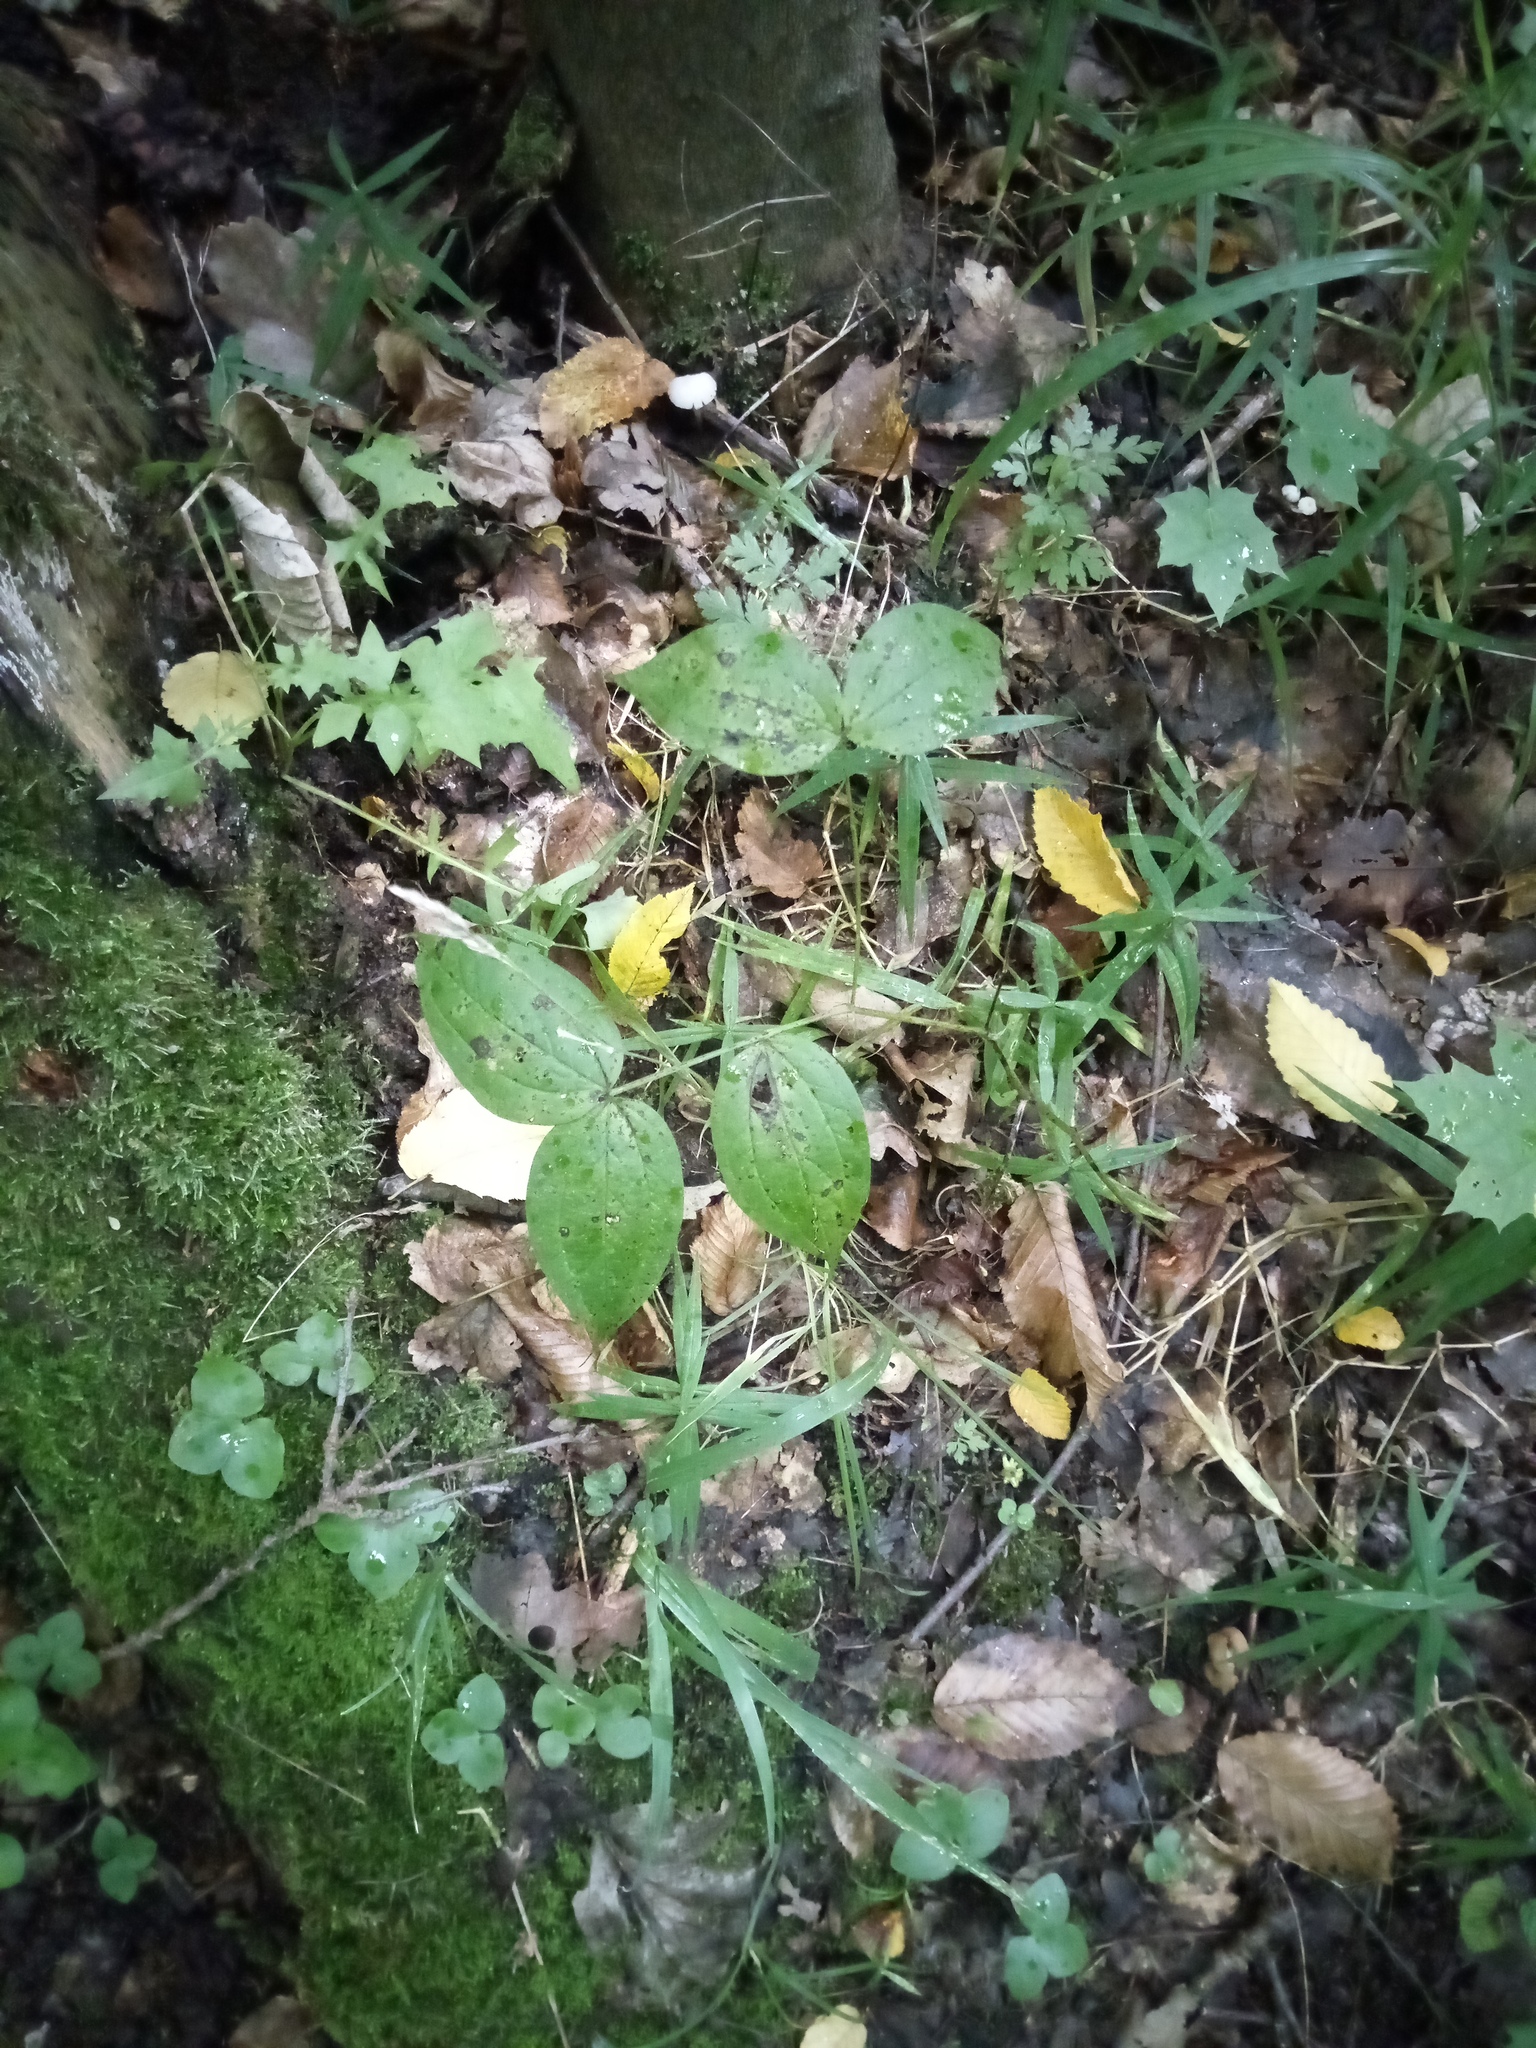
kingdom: Plantae
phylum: Tracheophyta
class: Magnoliopsida
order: Fabales
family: Fabaceae
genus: Lathyrus
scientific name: Lathyrus vernus
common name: Spring pea
